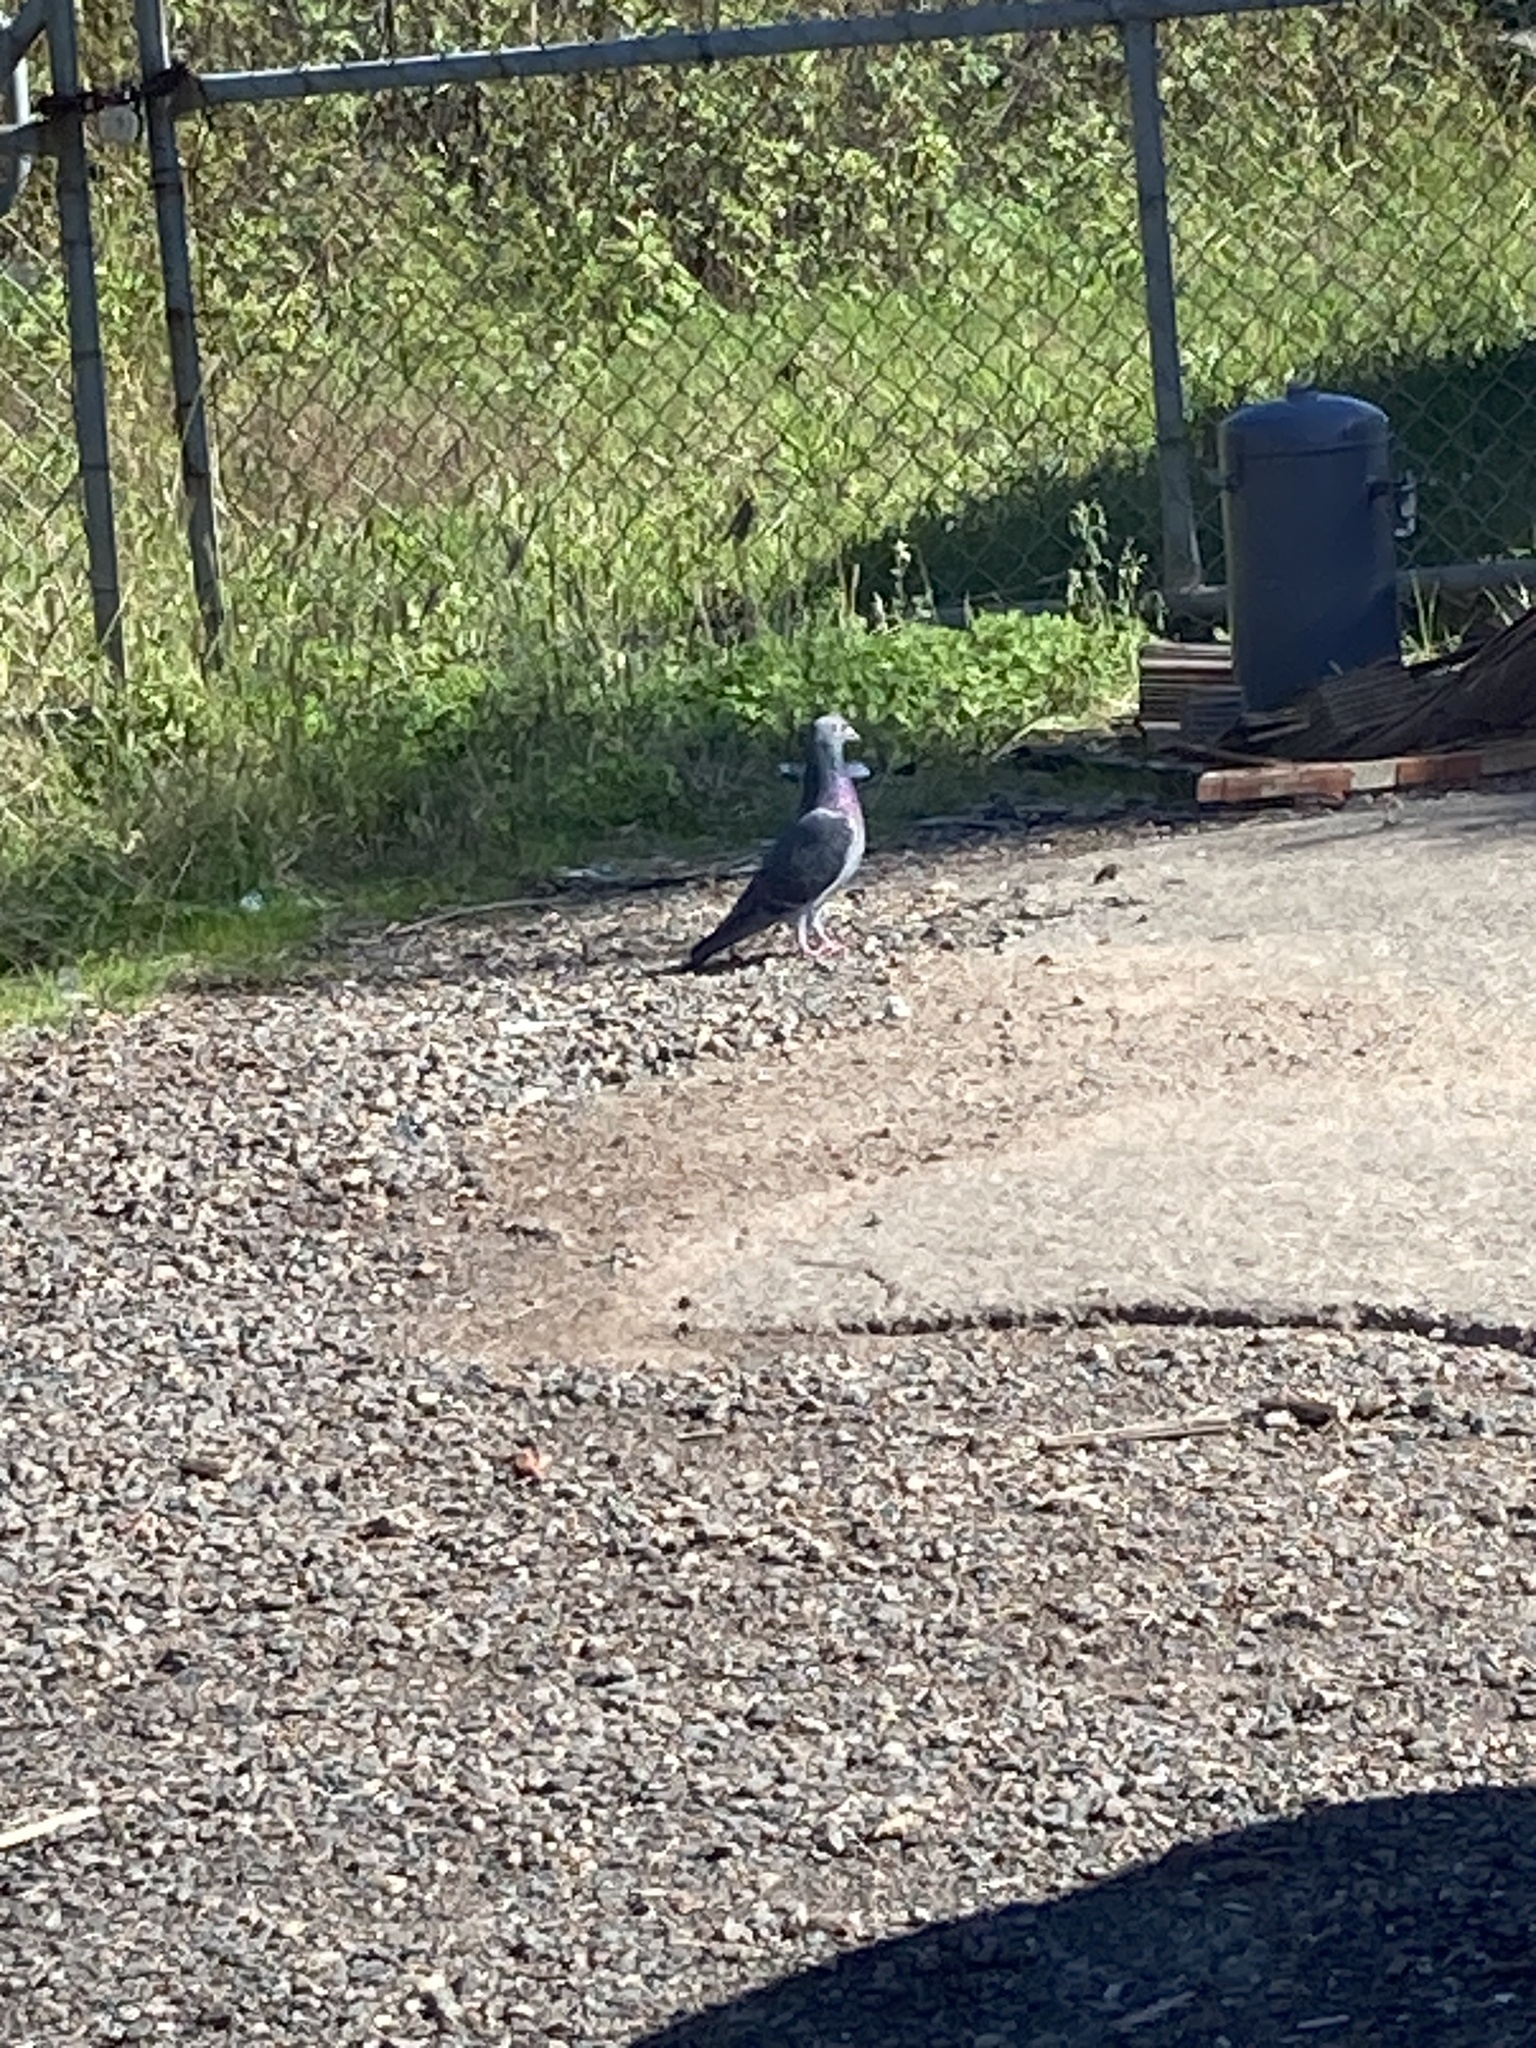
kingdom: Animalia
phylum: Chordata
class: Aves
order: Columbiformes
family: Columbidae
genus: Columba
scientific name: Columba livia
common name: Rock pigeon
